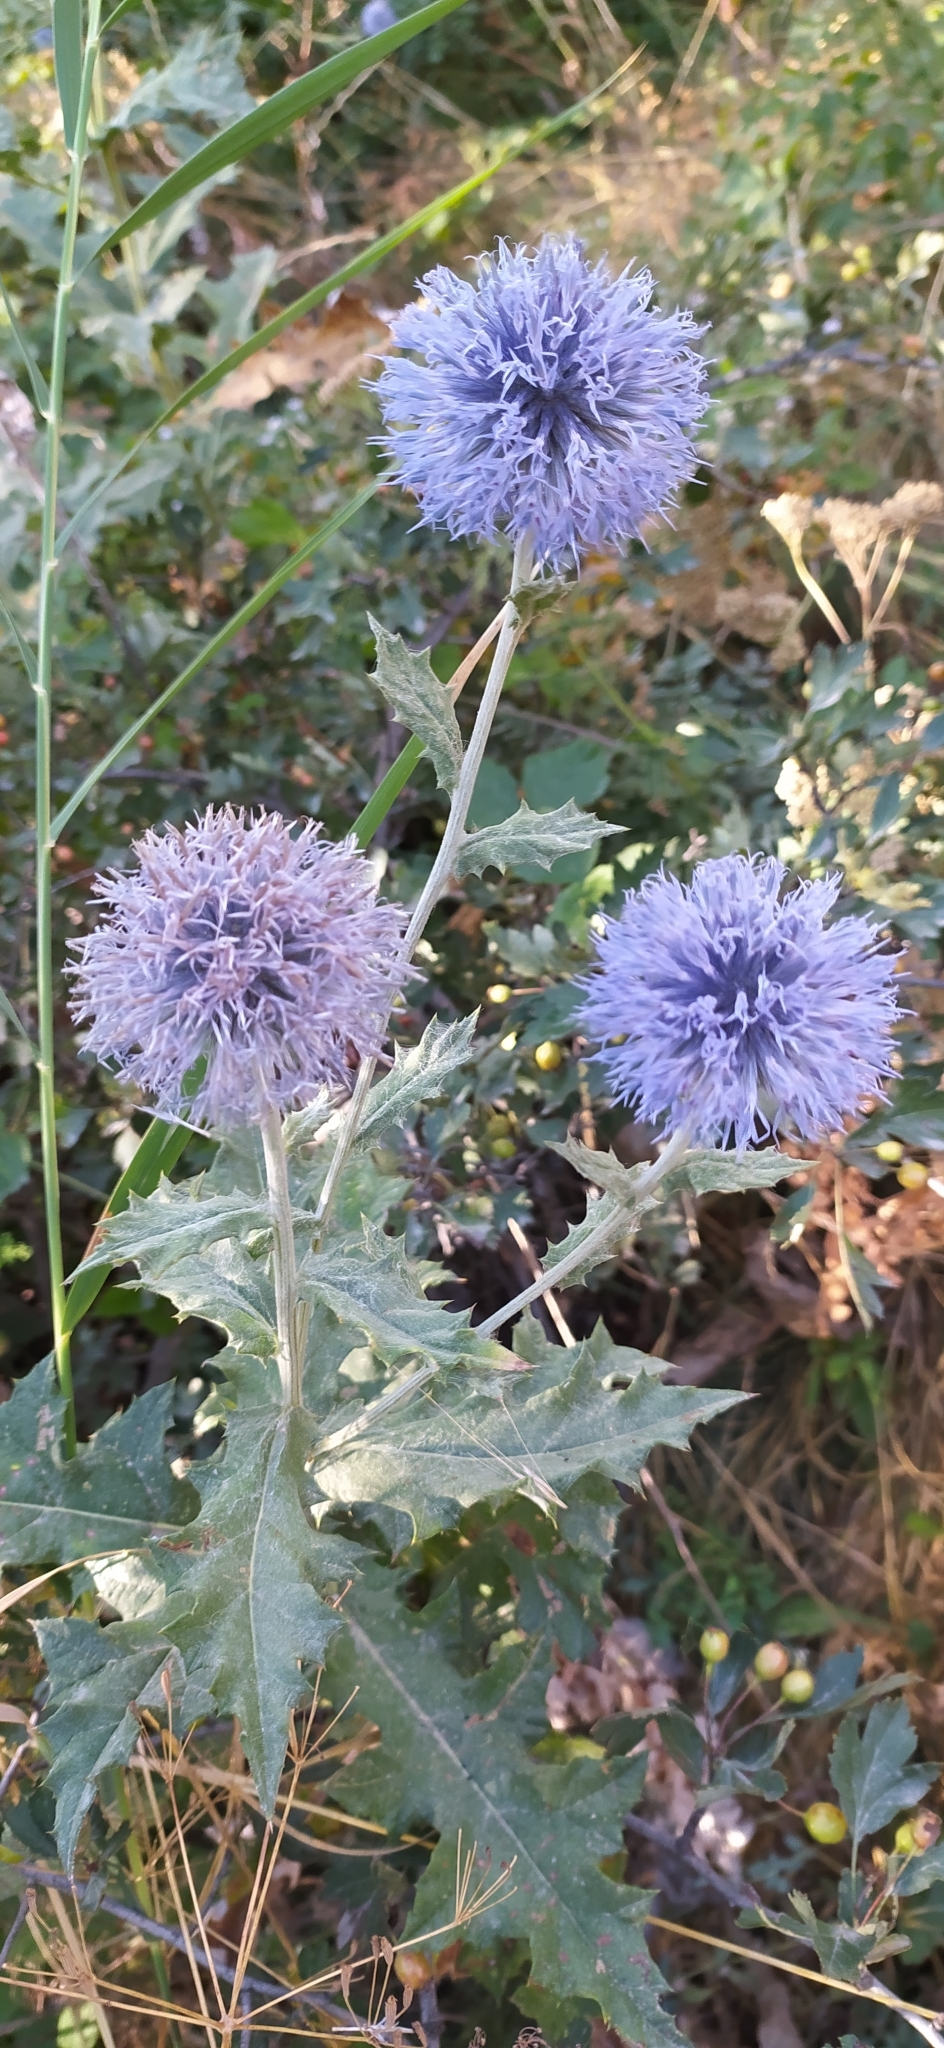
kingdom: Plantae
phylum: Tracheophyta
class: Magnoliopsida
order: Asterales
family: Asteraceae
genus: Echinops
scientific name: Echinops karatavicus
